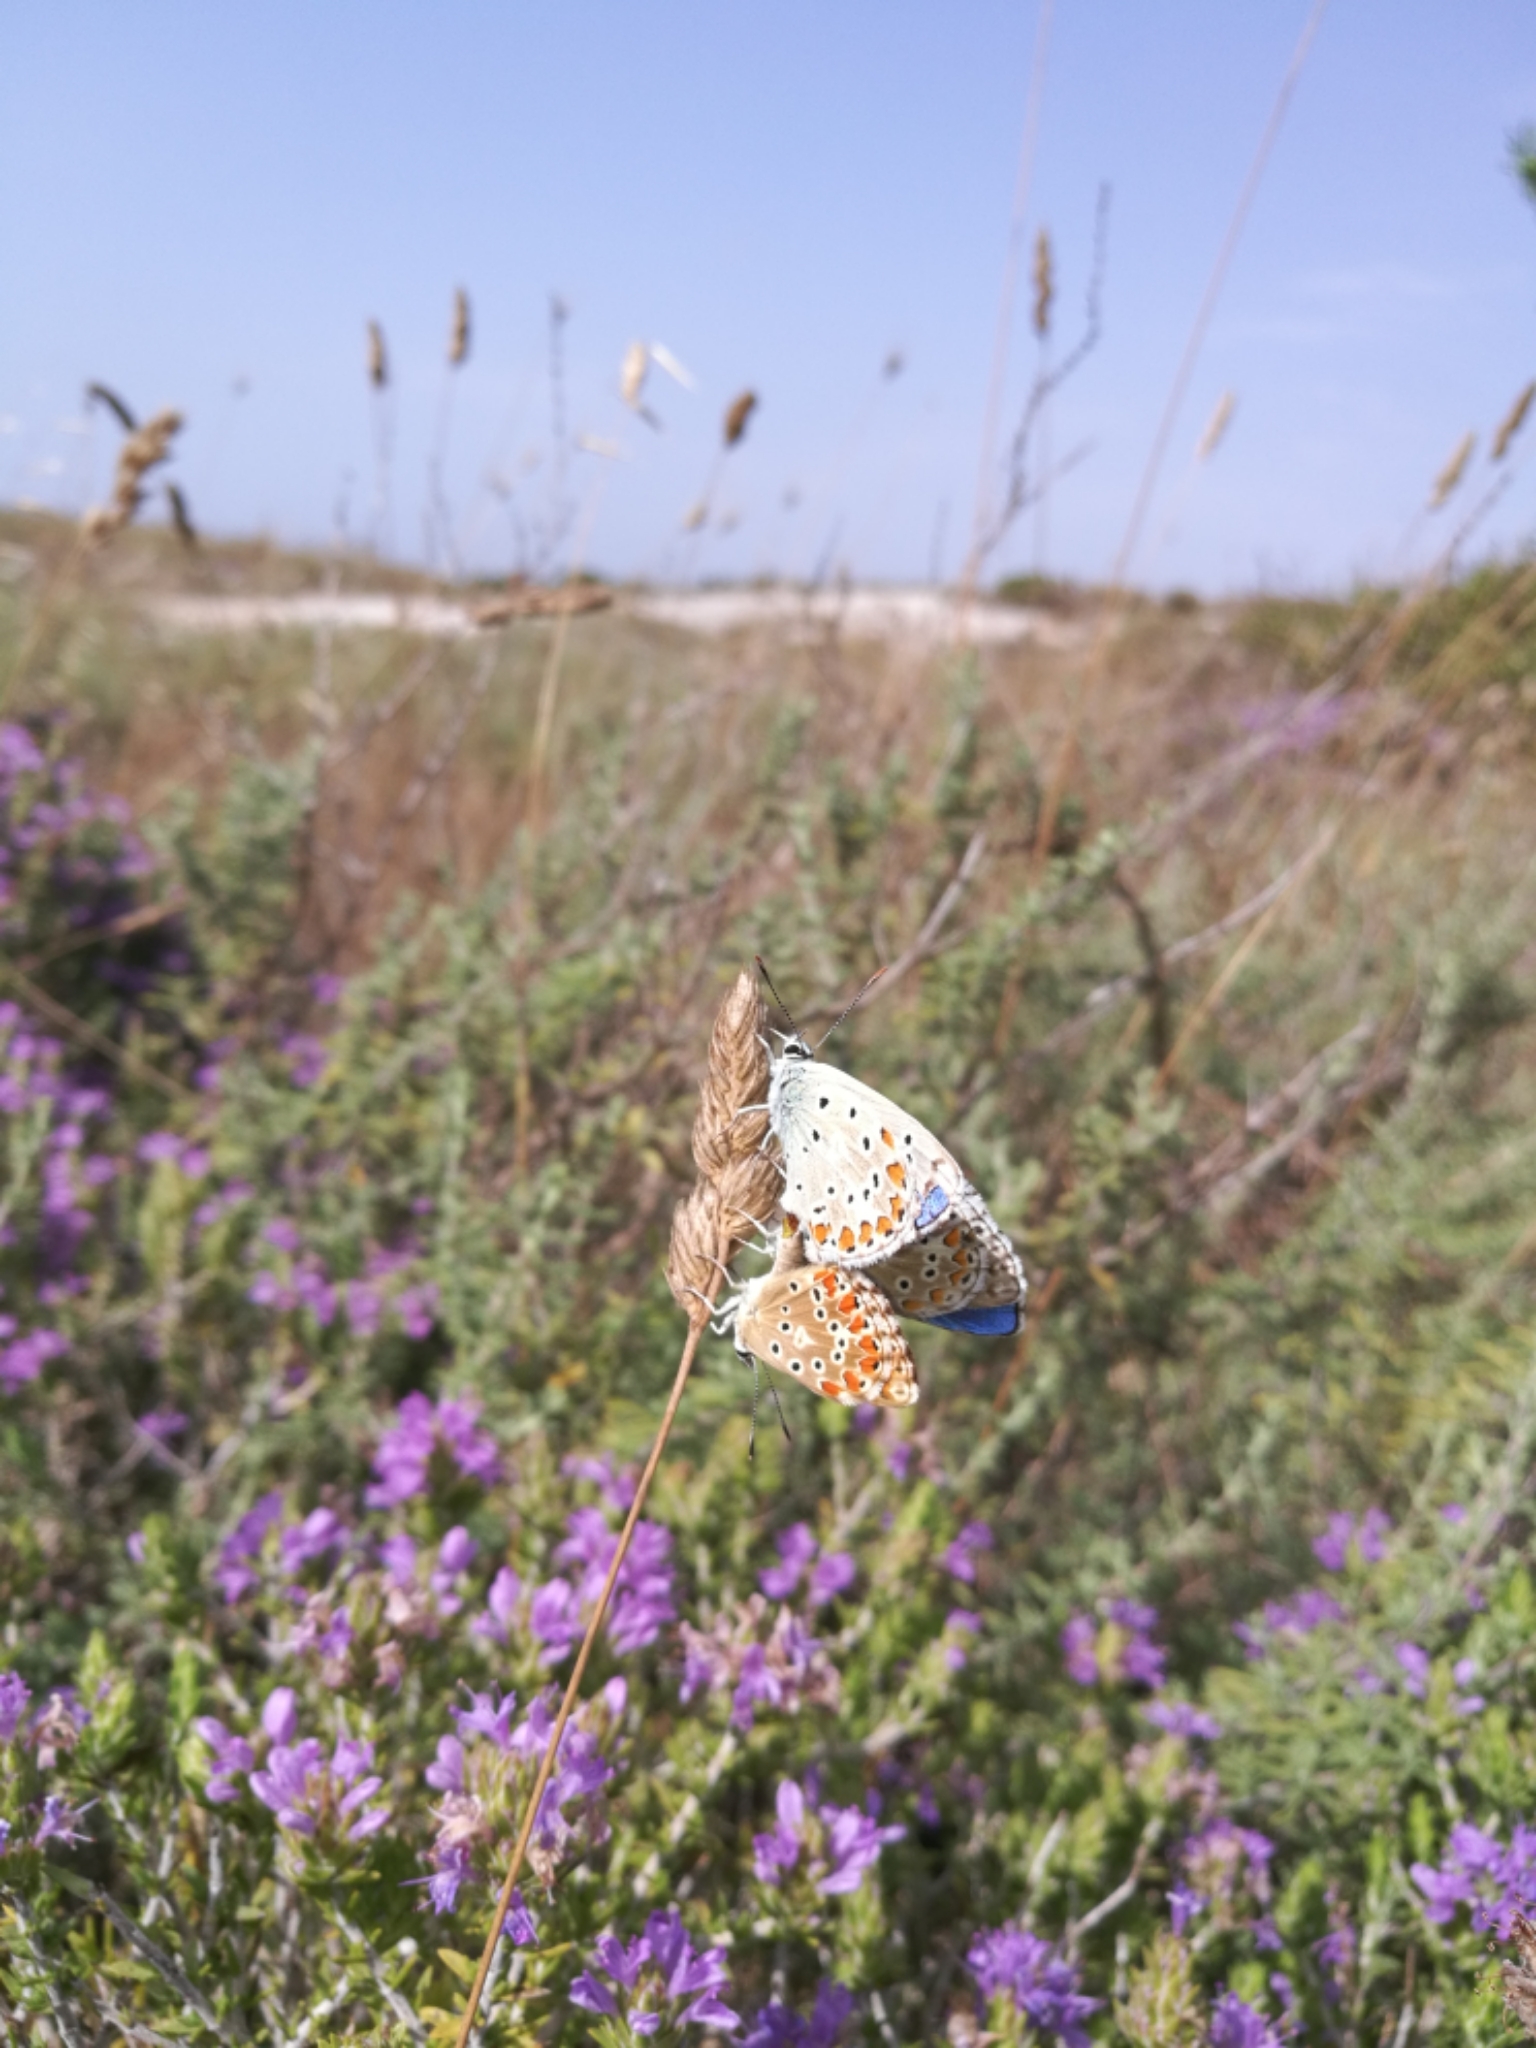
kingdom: Animalia
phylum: Arthropoda
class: Insecta
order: Lepidoptera
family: Lycaenidae
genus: Lysandra
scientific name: Lysandra bellargus
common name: Adonis blue
